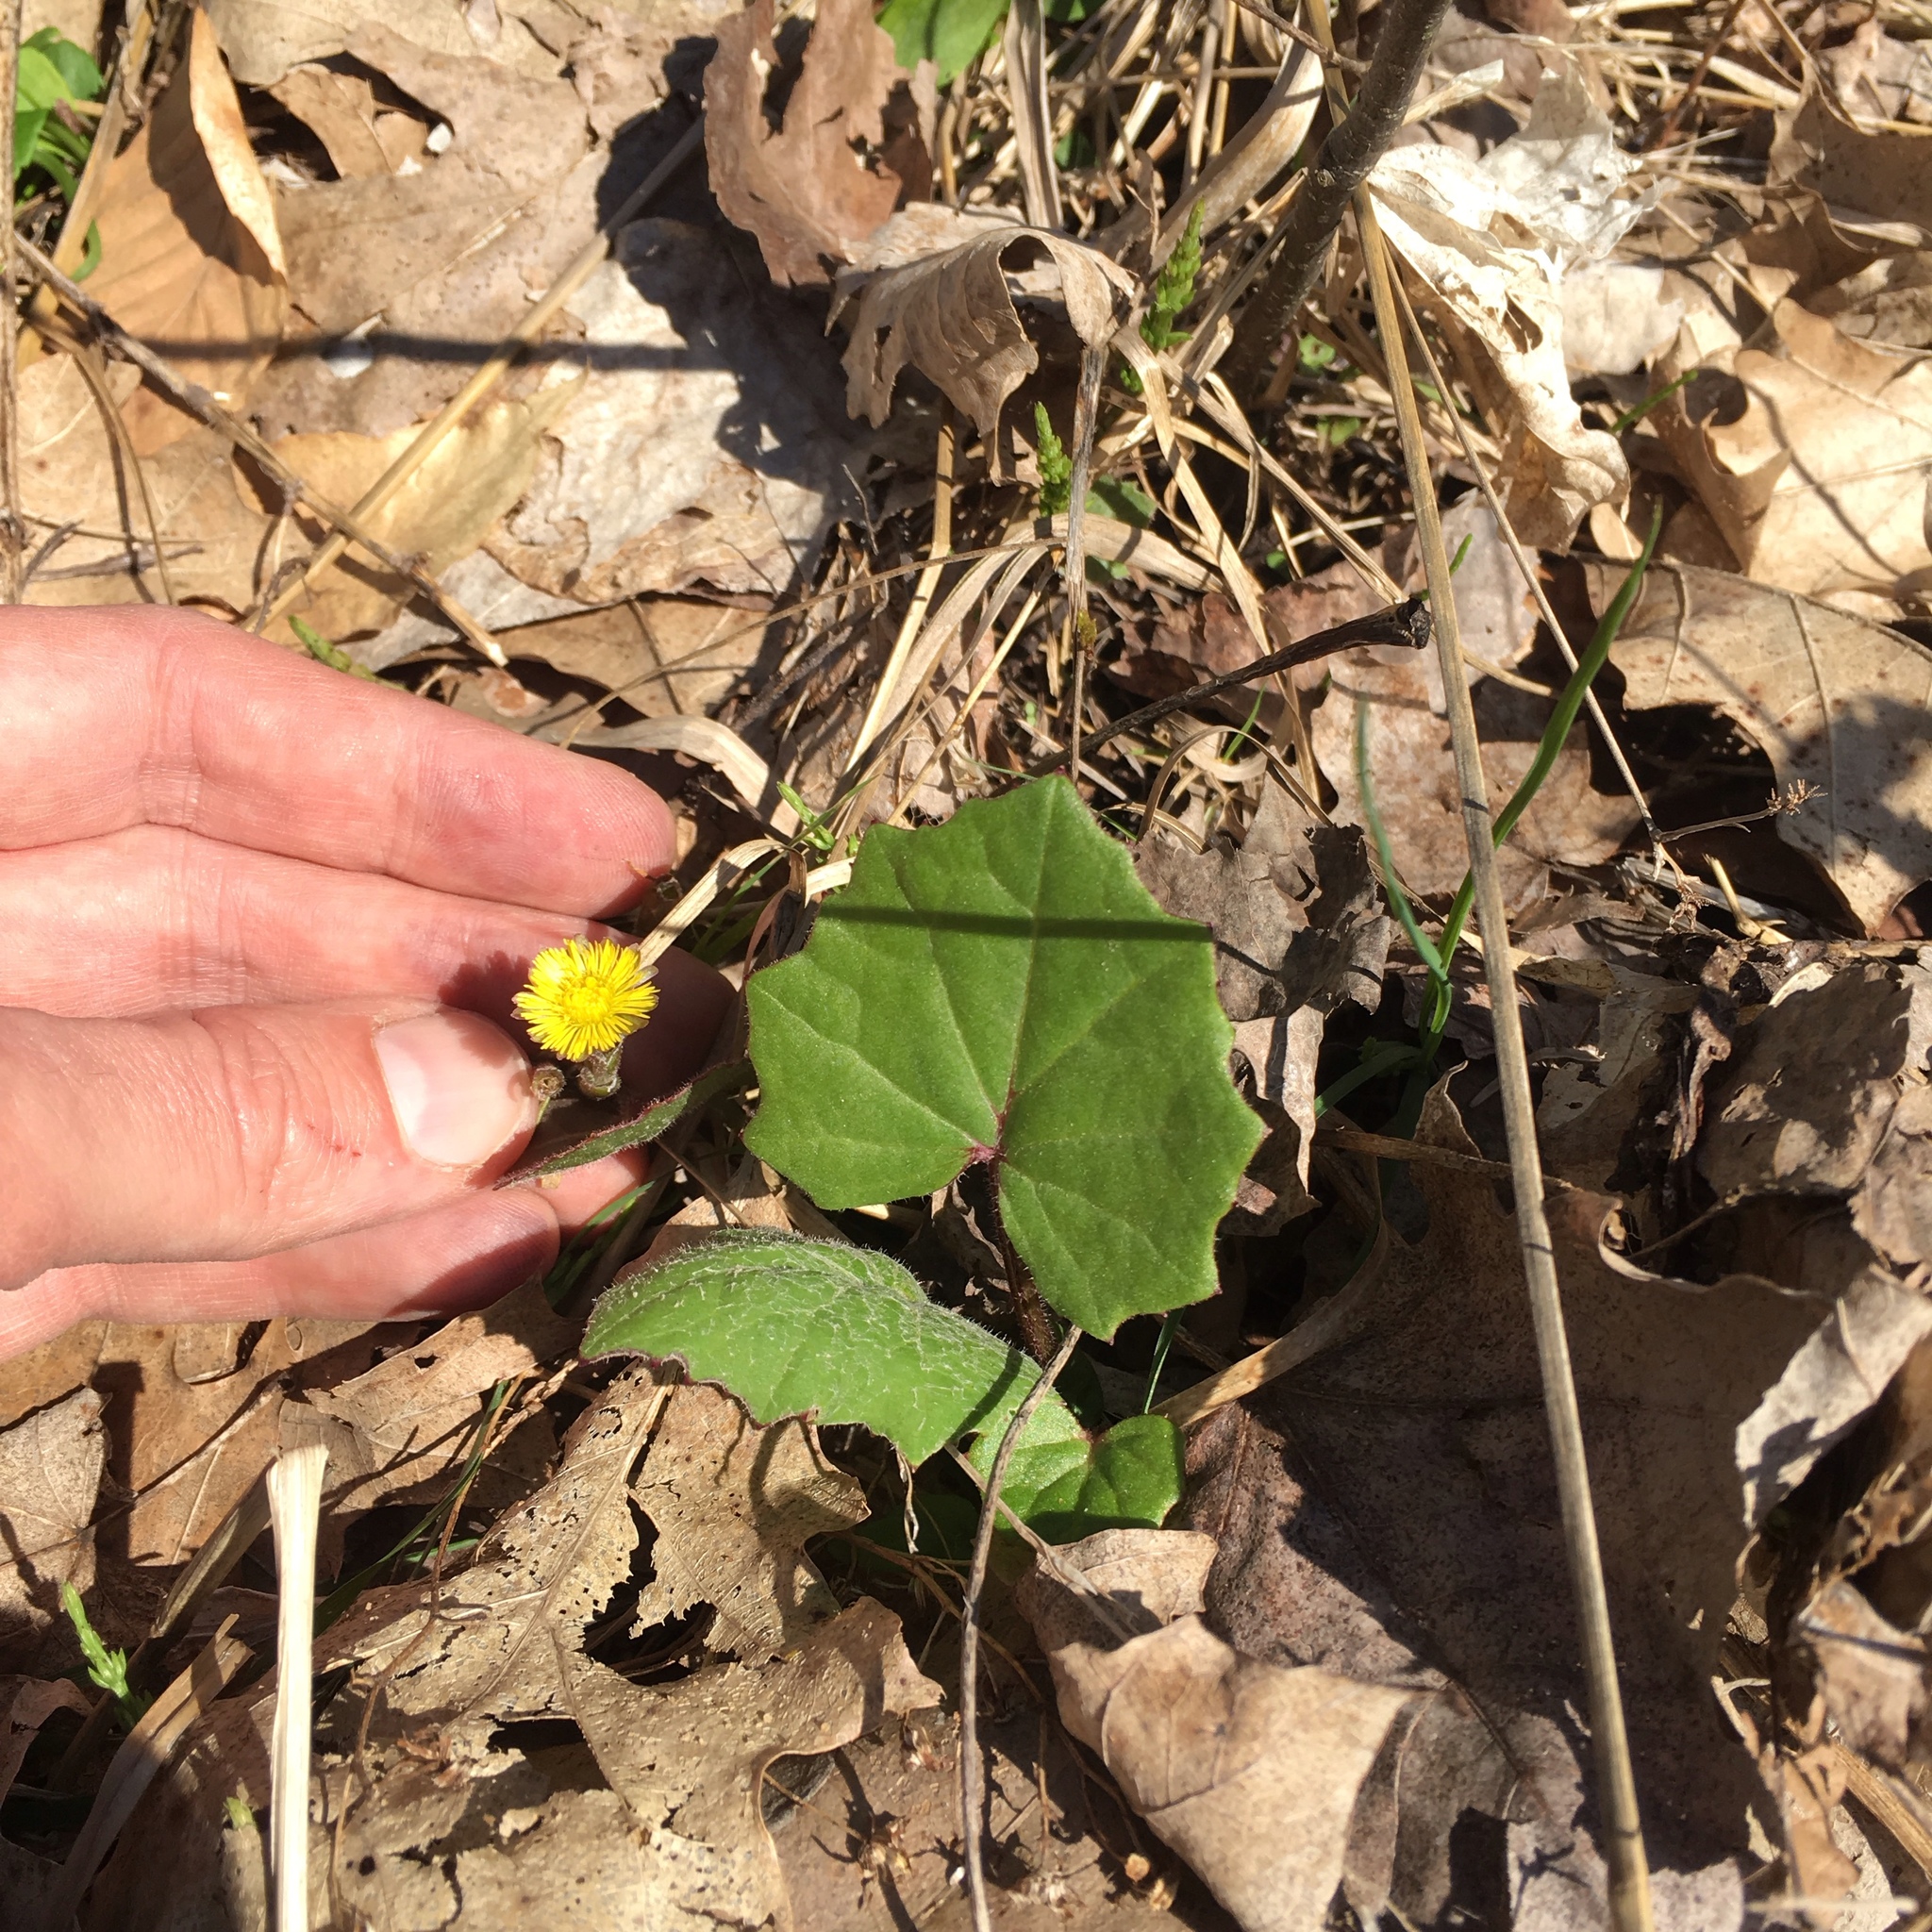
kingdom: Plantae
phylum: Tracheophyta
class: Magnoliopsida
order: Asterales
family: Asteraceae
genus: Tussilago
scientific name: Tussilago farfara
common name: Coltsfoot
